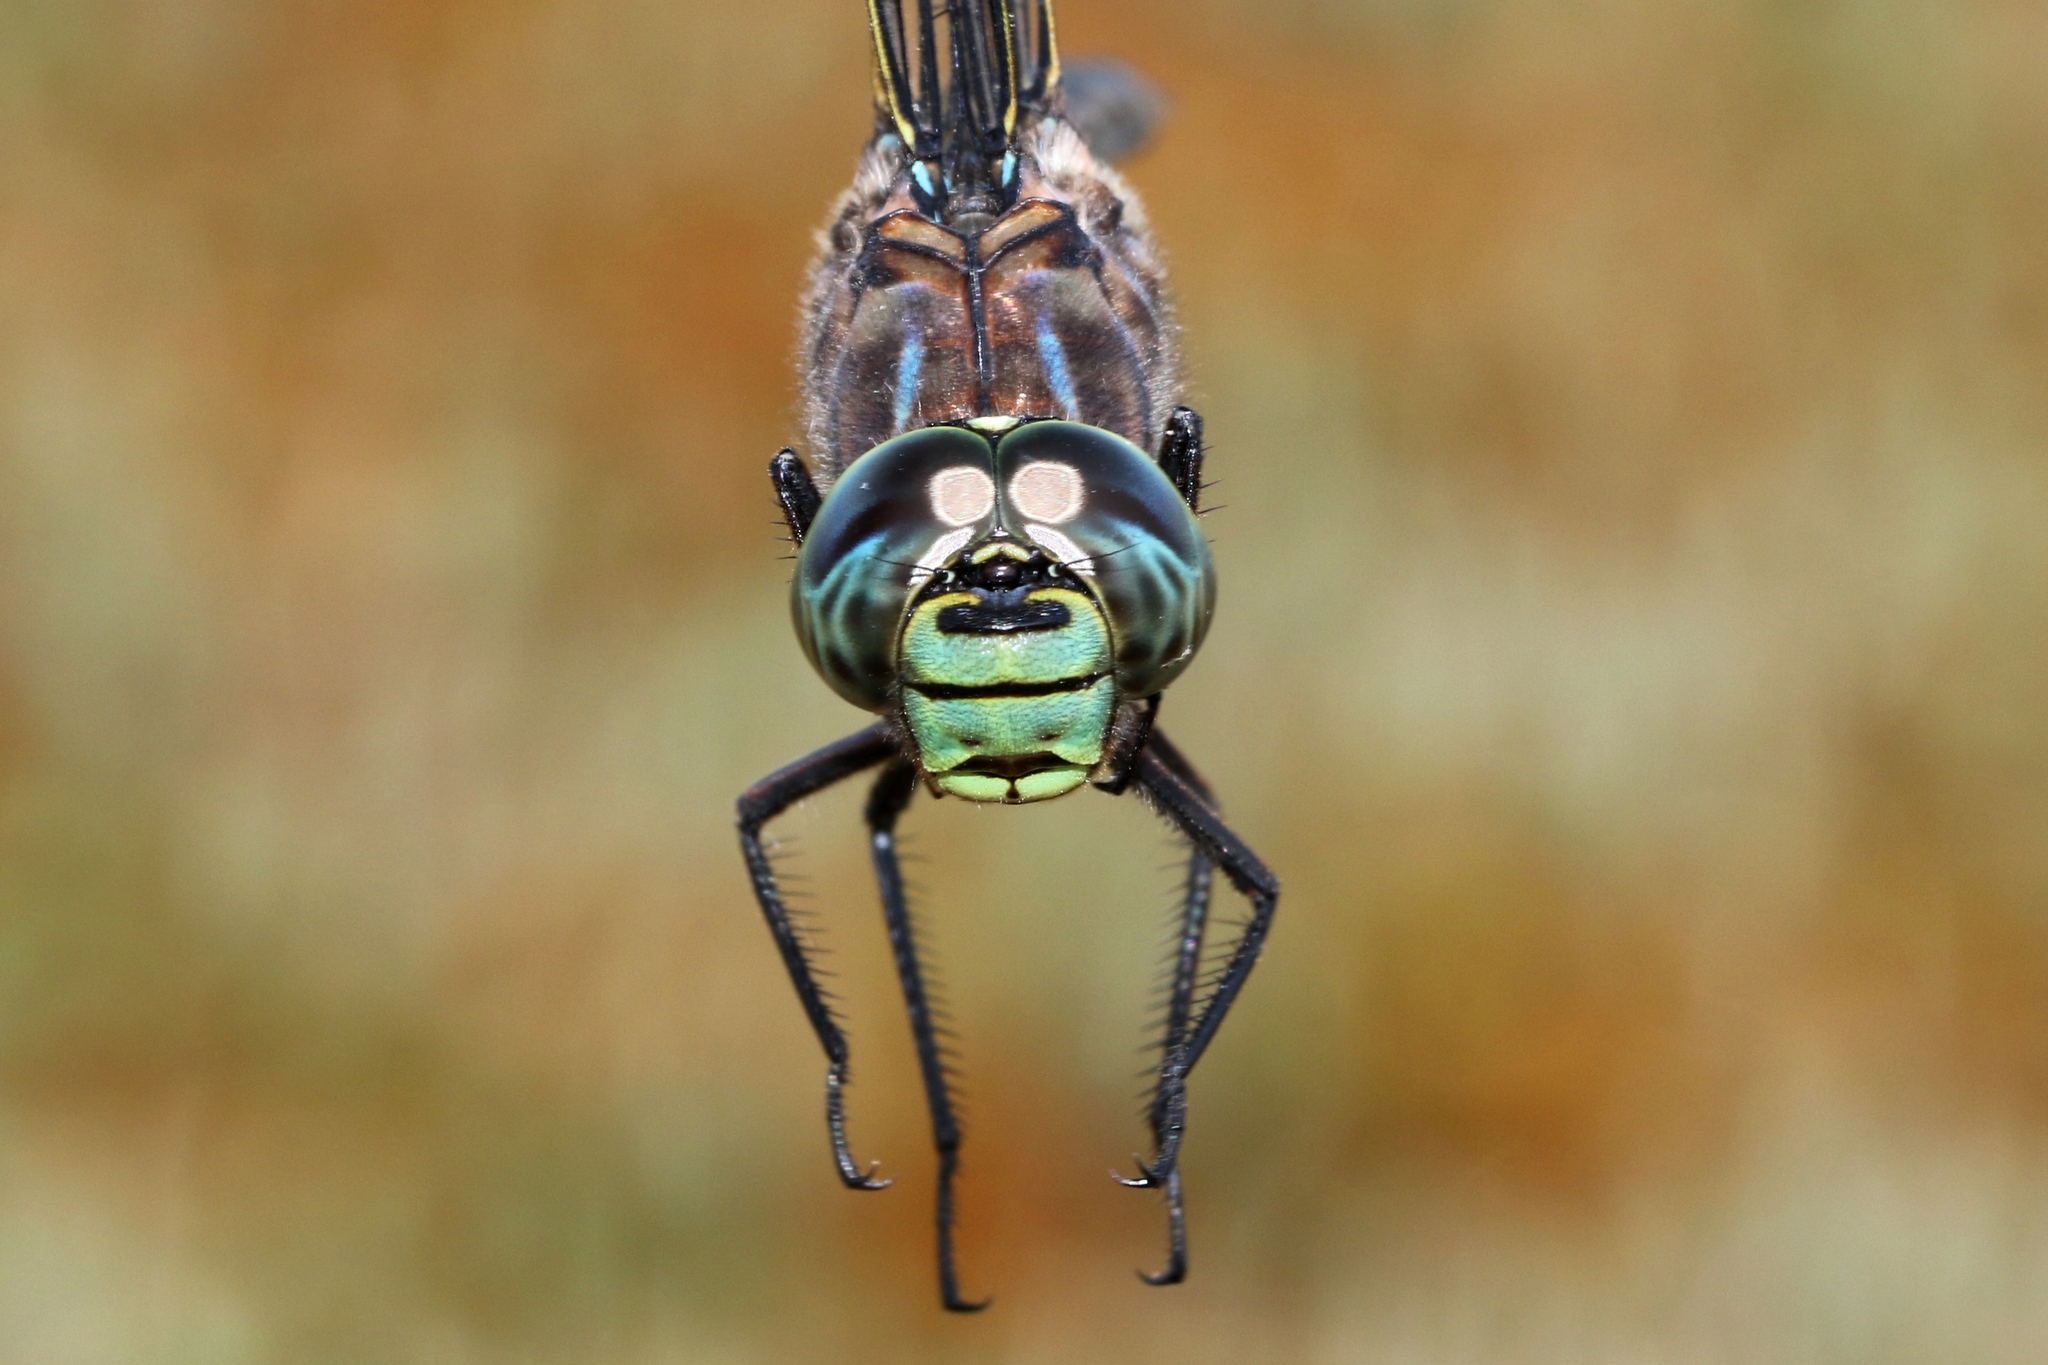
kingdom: Animalia
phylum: Arthropoda
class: Insecta
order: Odonata
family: Aeshnidae
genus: Aeshna
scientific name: Aeshna eremita
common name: Lake darner
